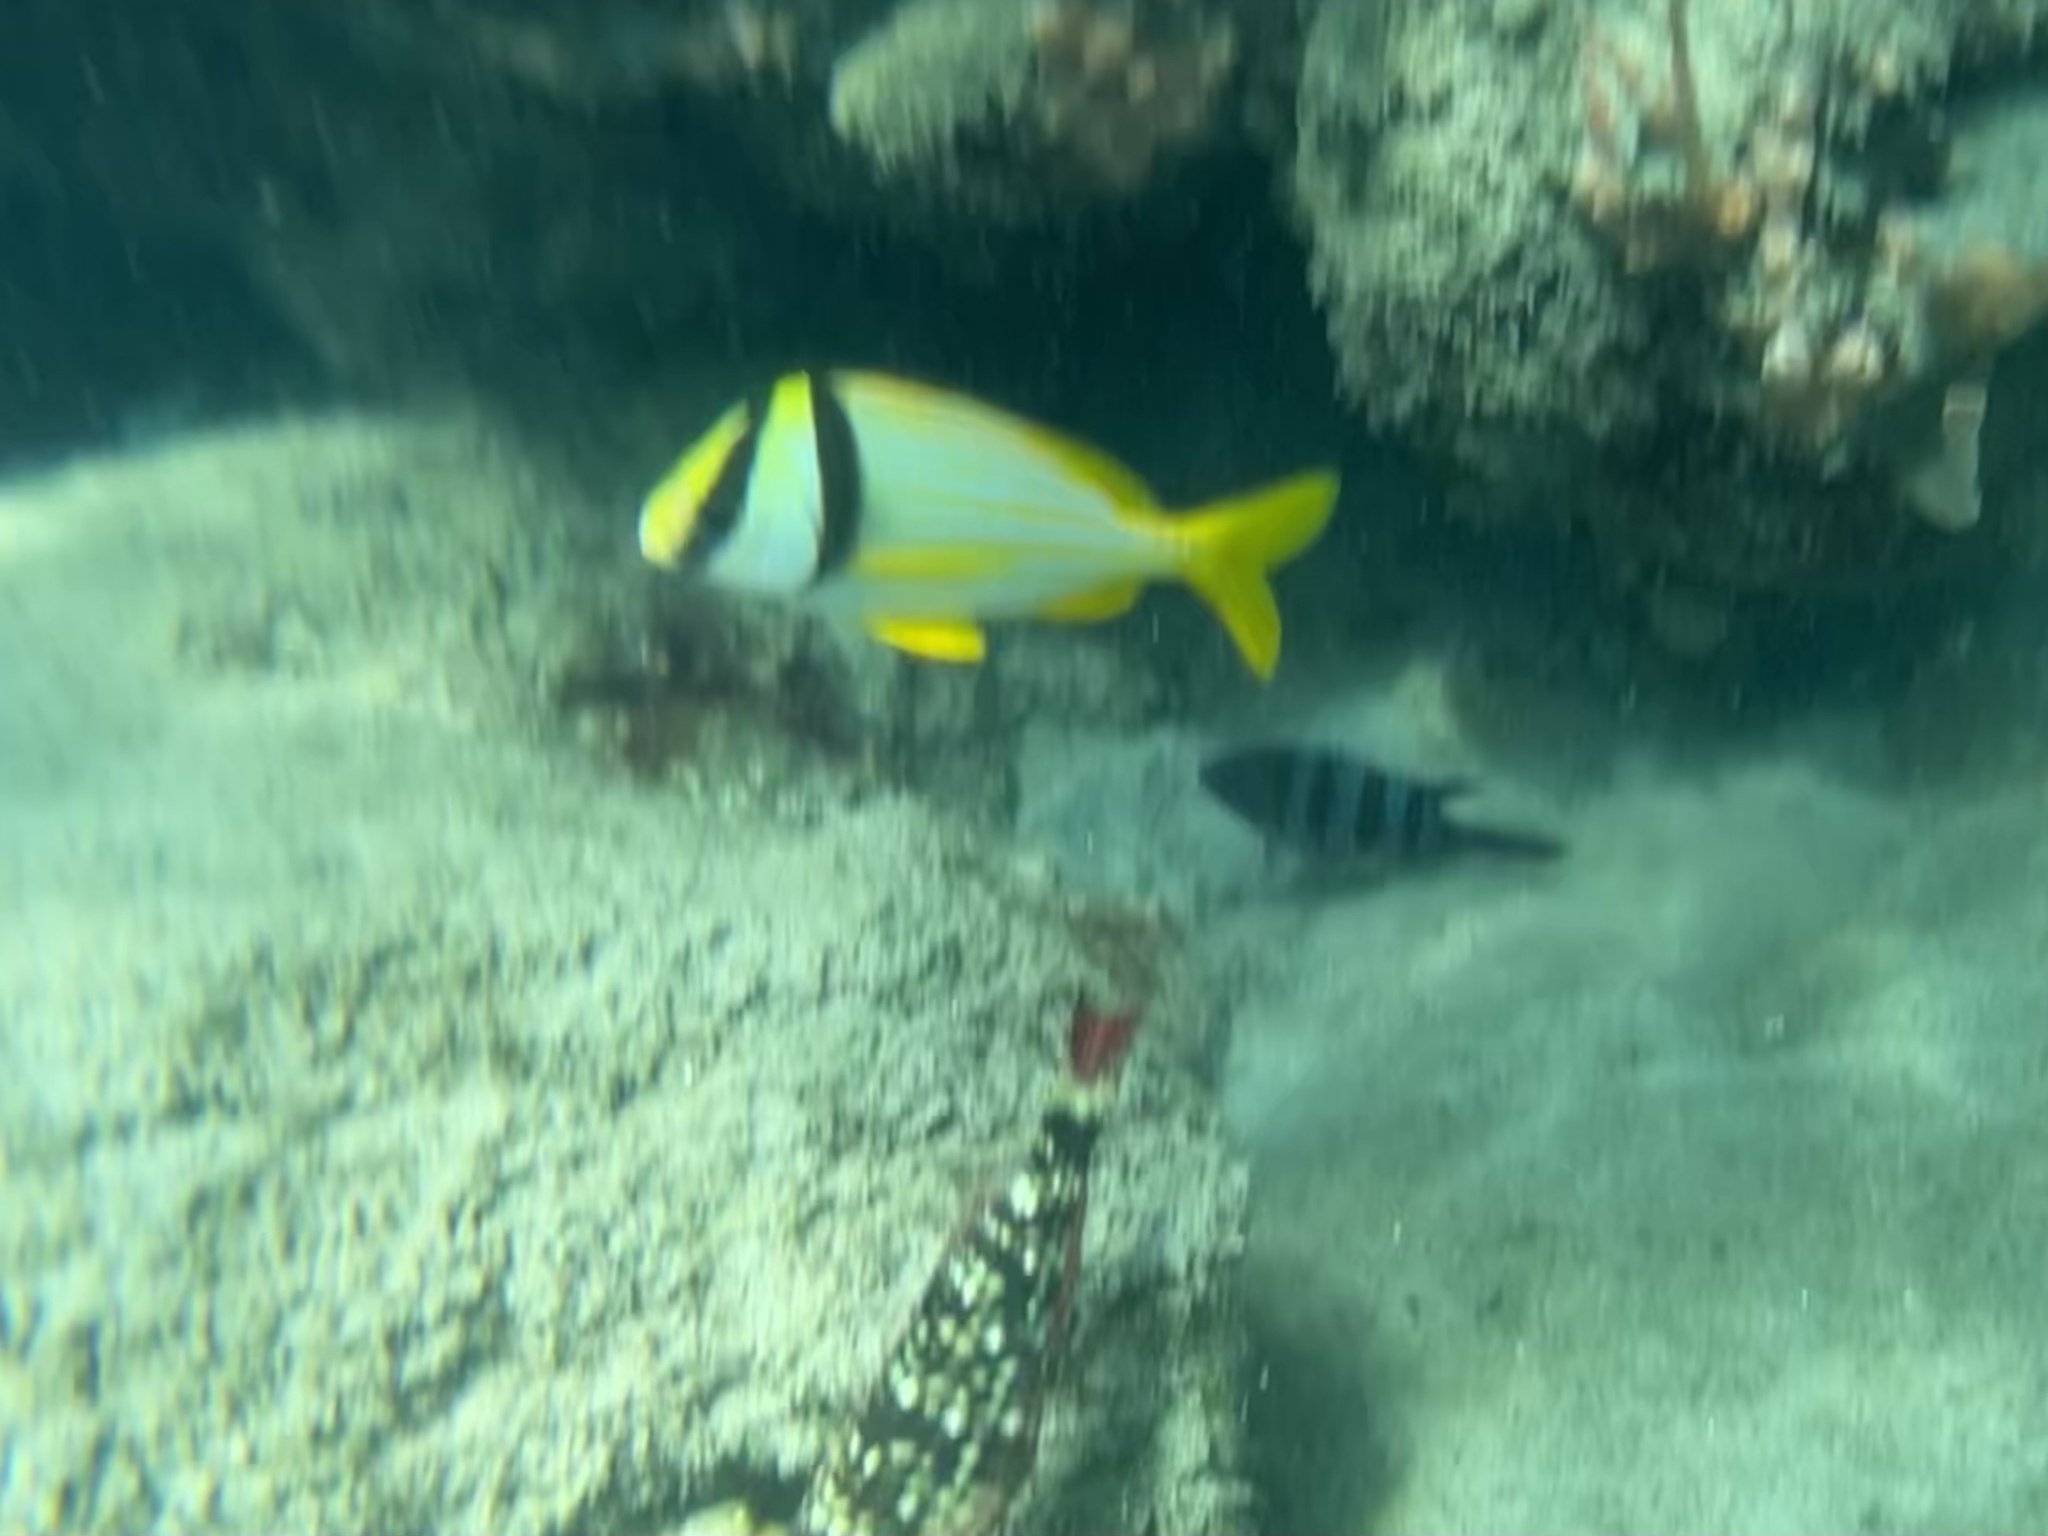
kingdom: Animalia
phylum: Chordata
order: Perciformes
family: Haemulidae
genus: Anisotremus
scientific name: Anisotremus virginicus
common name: Porkfish
